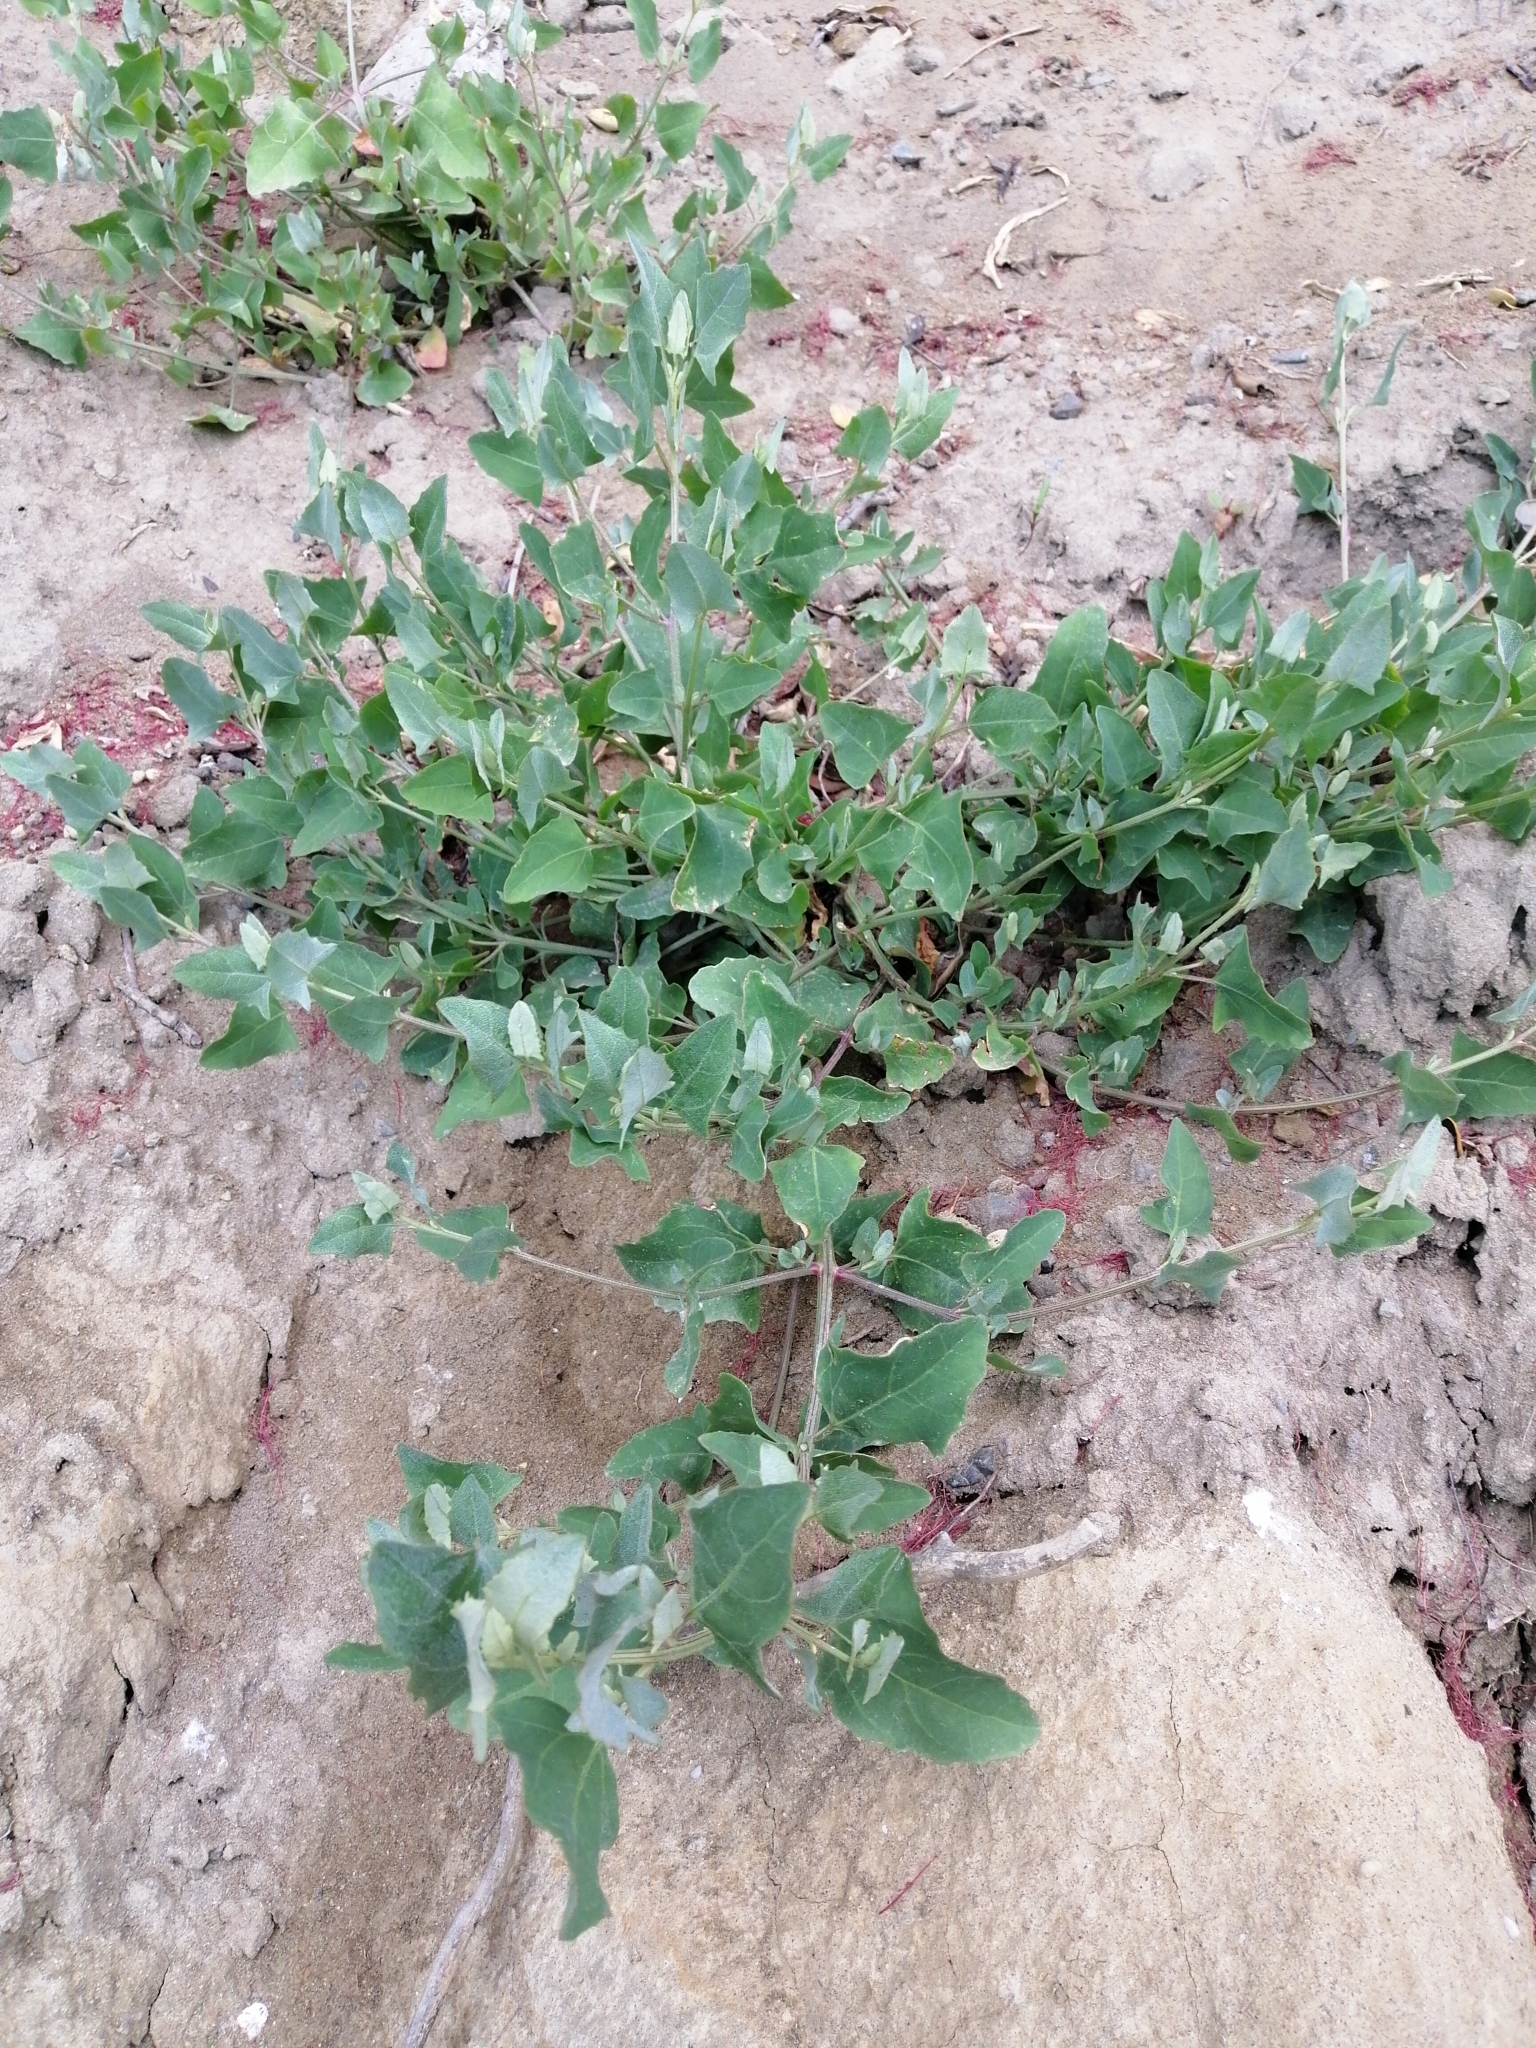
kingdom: Plantae
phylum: Tracheophyta
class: Magnoliopsida
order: Caryophyllales
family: Amaranthaceae
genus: Chenopodium
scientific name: Chenopodium album
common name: Fat-hen
